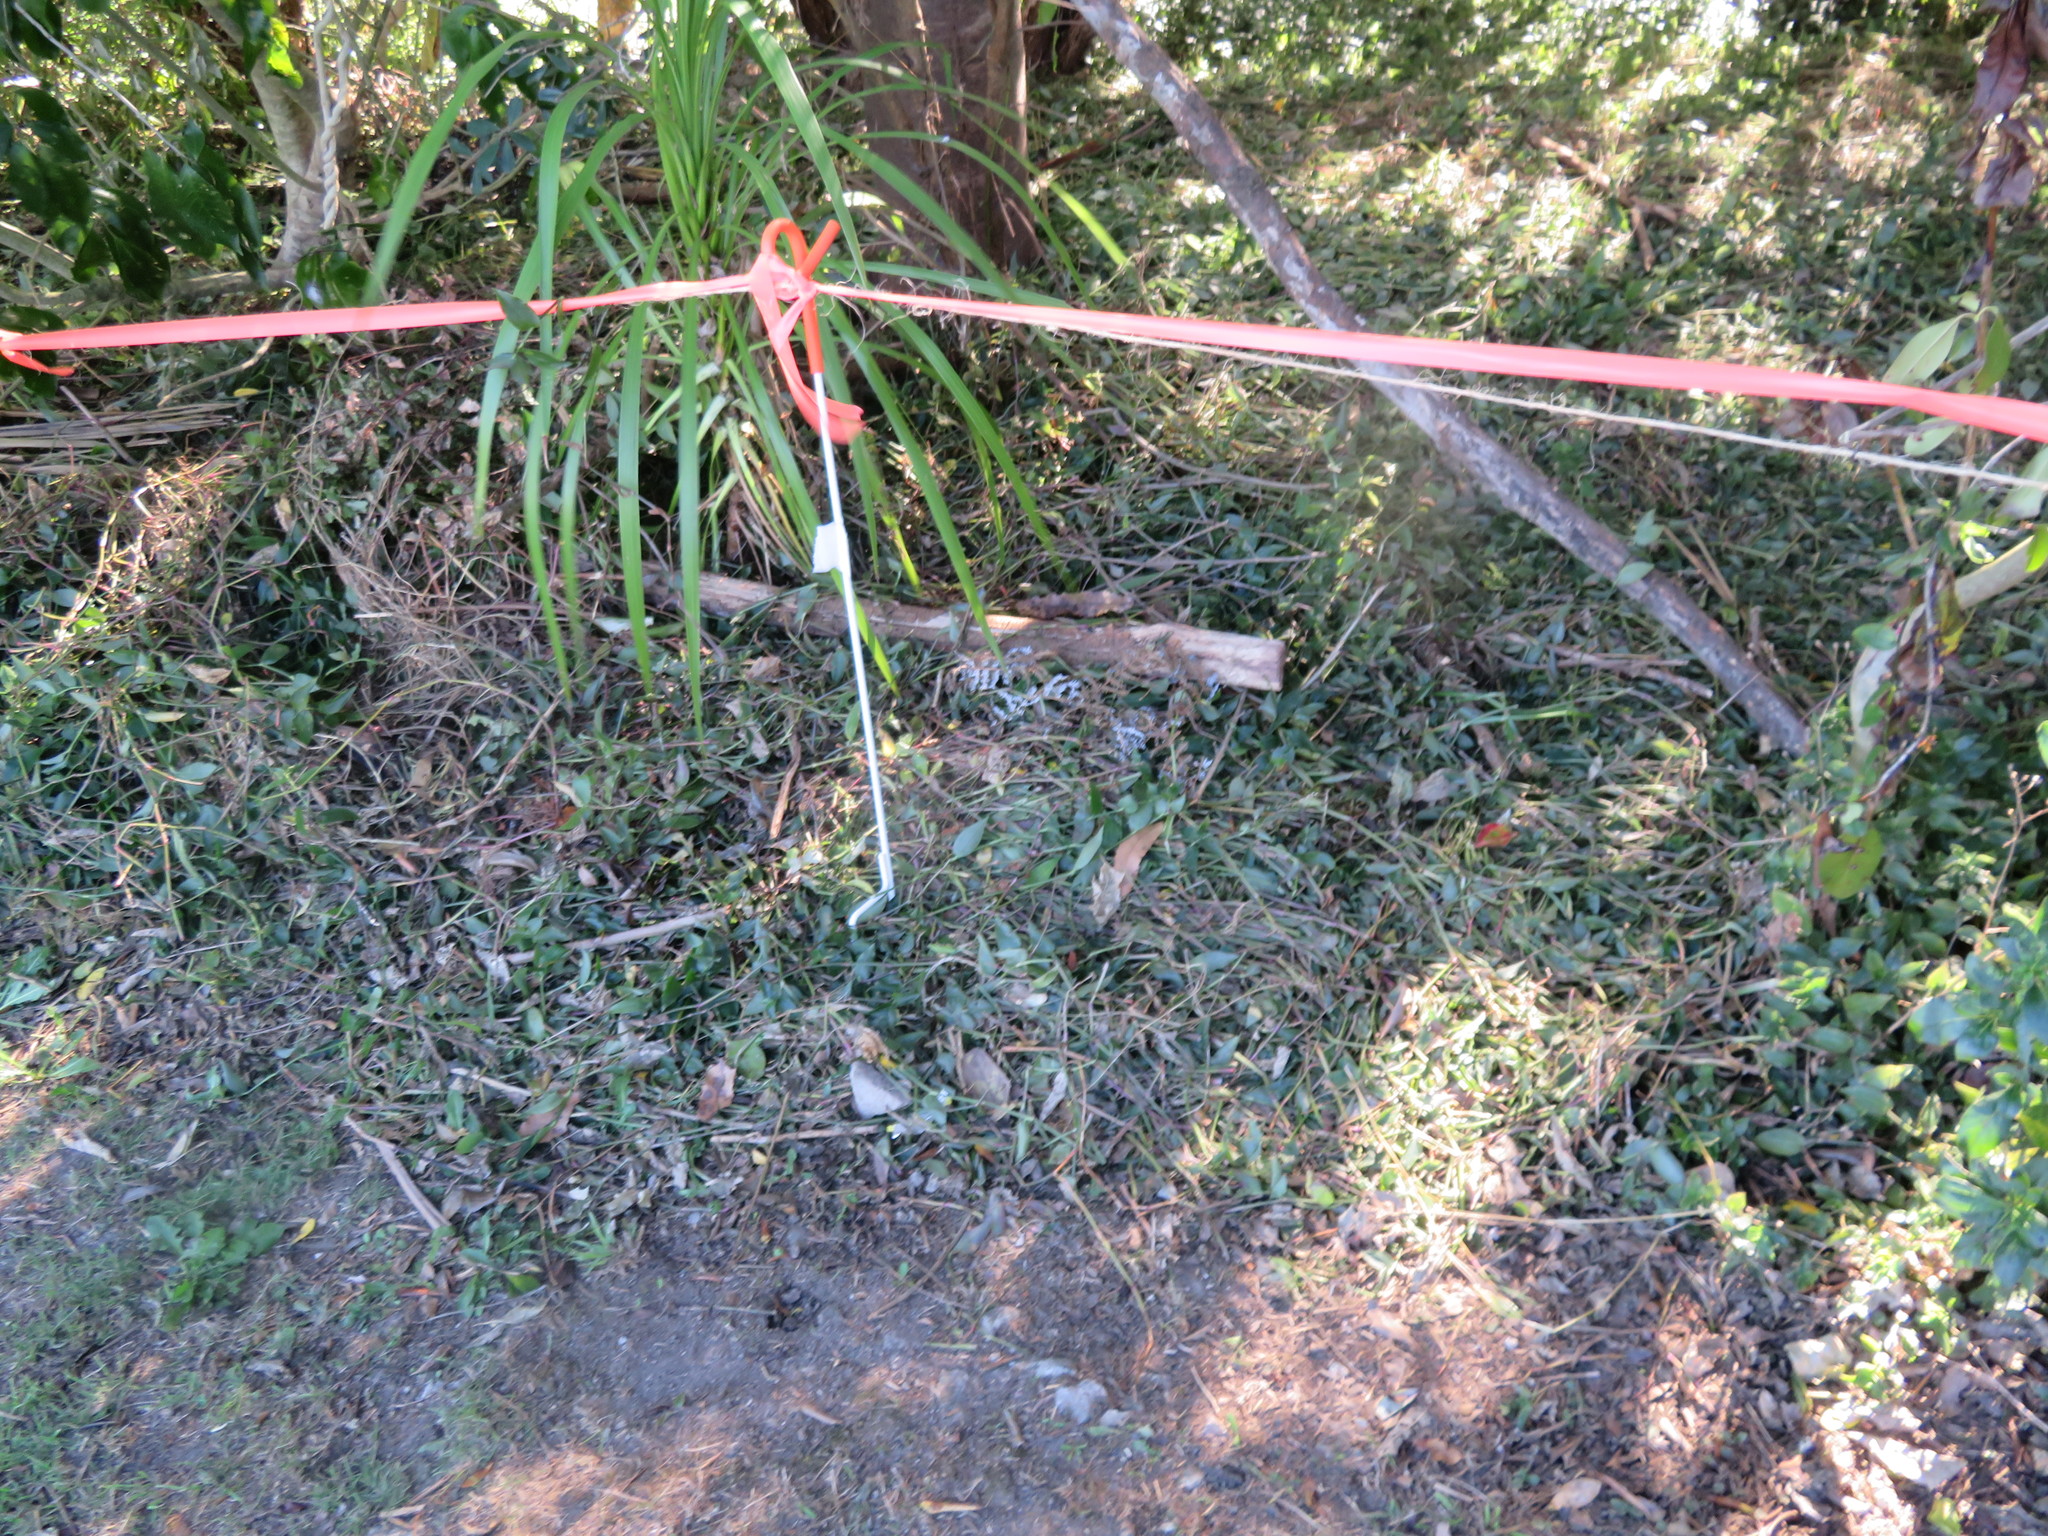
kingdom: Plantae
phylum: Tracheophyta
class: Liliopsida
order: Asparagales
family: Asparagaceae
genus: Cordyline
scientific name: Cordyline australis
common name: Cabbage-palm
